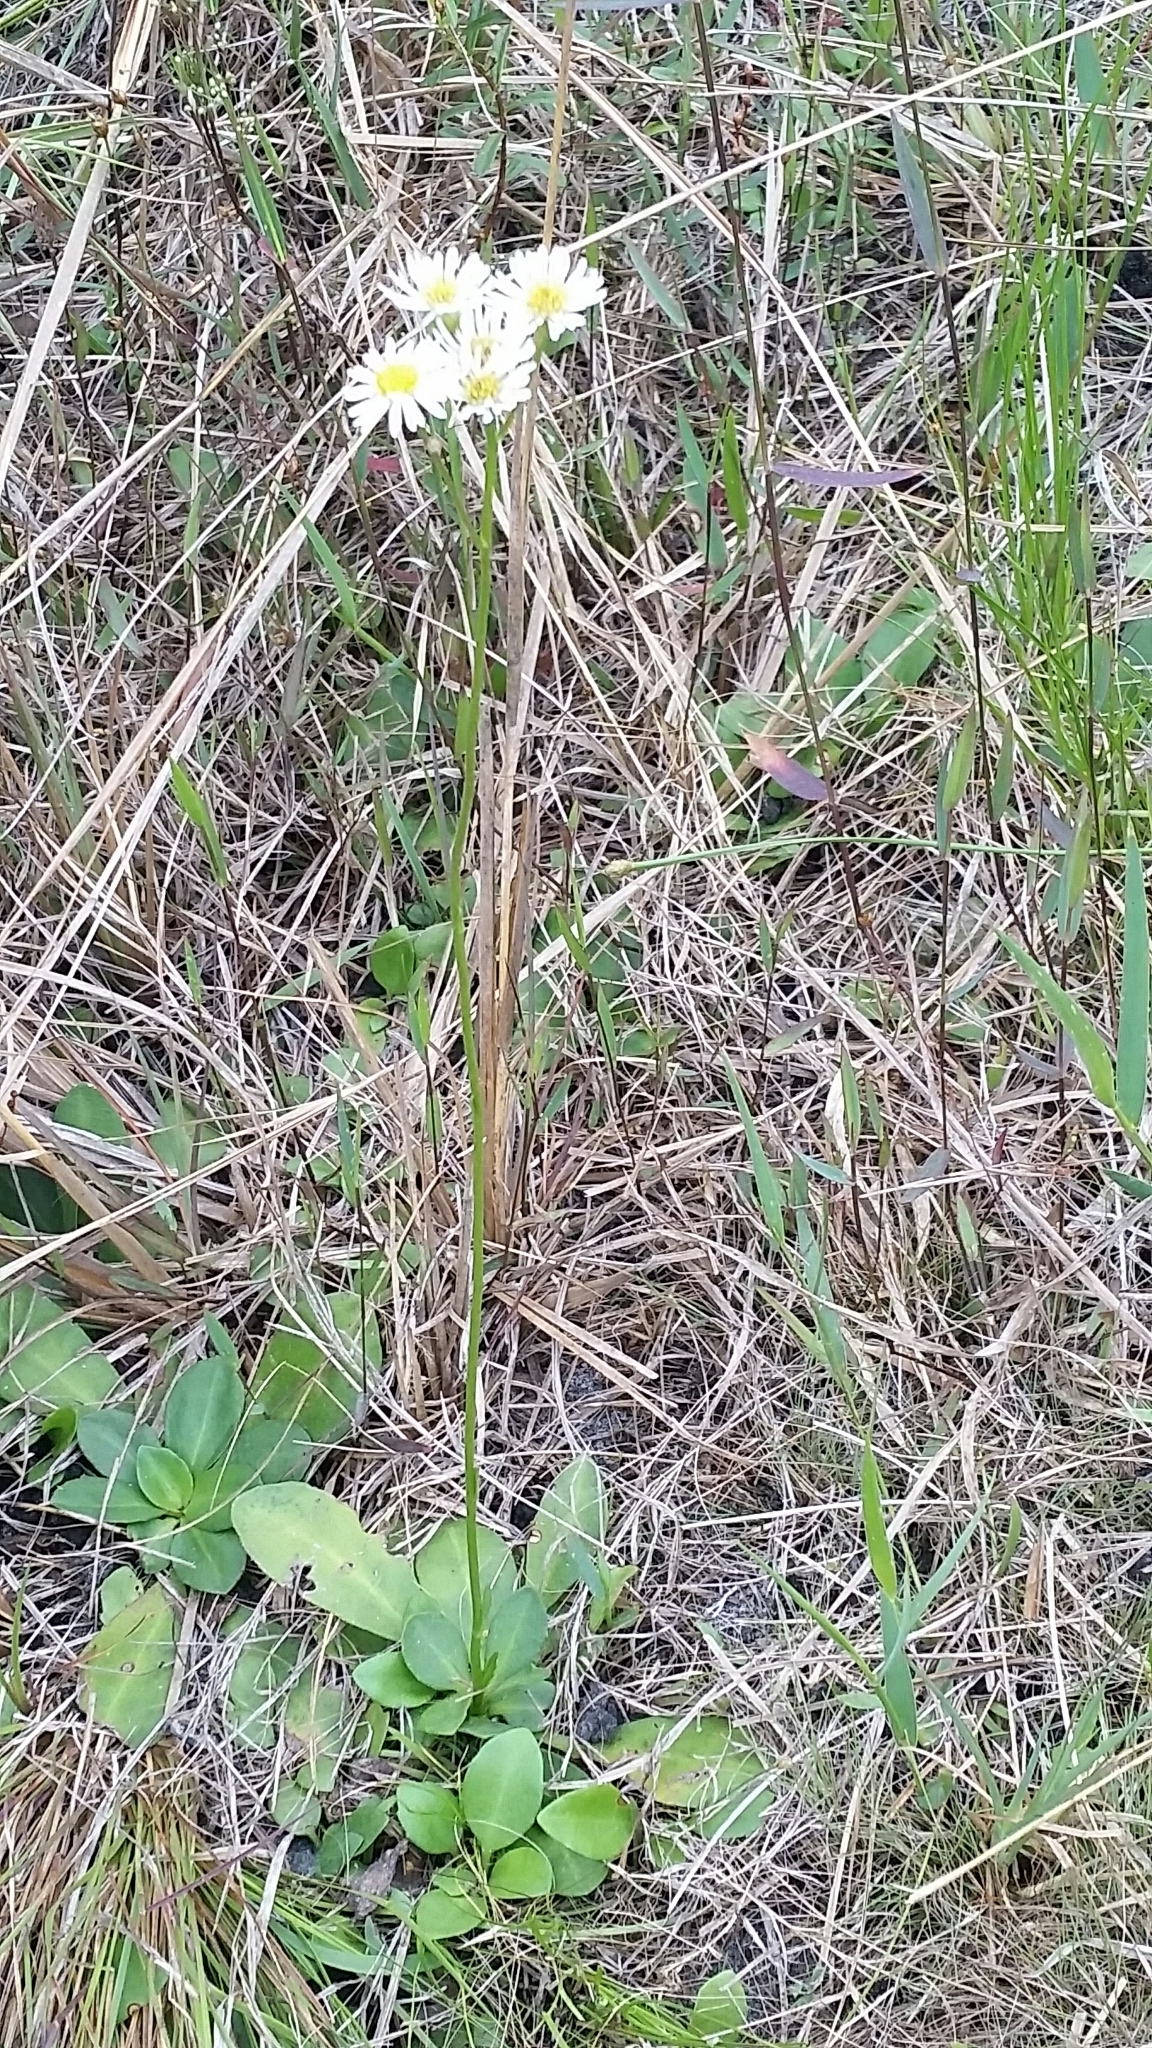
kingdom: Plantae
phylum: Tracheophyta
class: Magnoliopsida
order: Asterales
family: Asteraceae
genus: Erigeron
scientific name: Erigeron vernus
